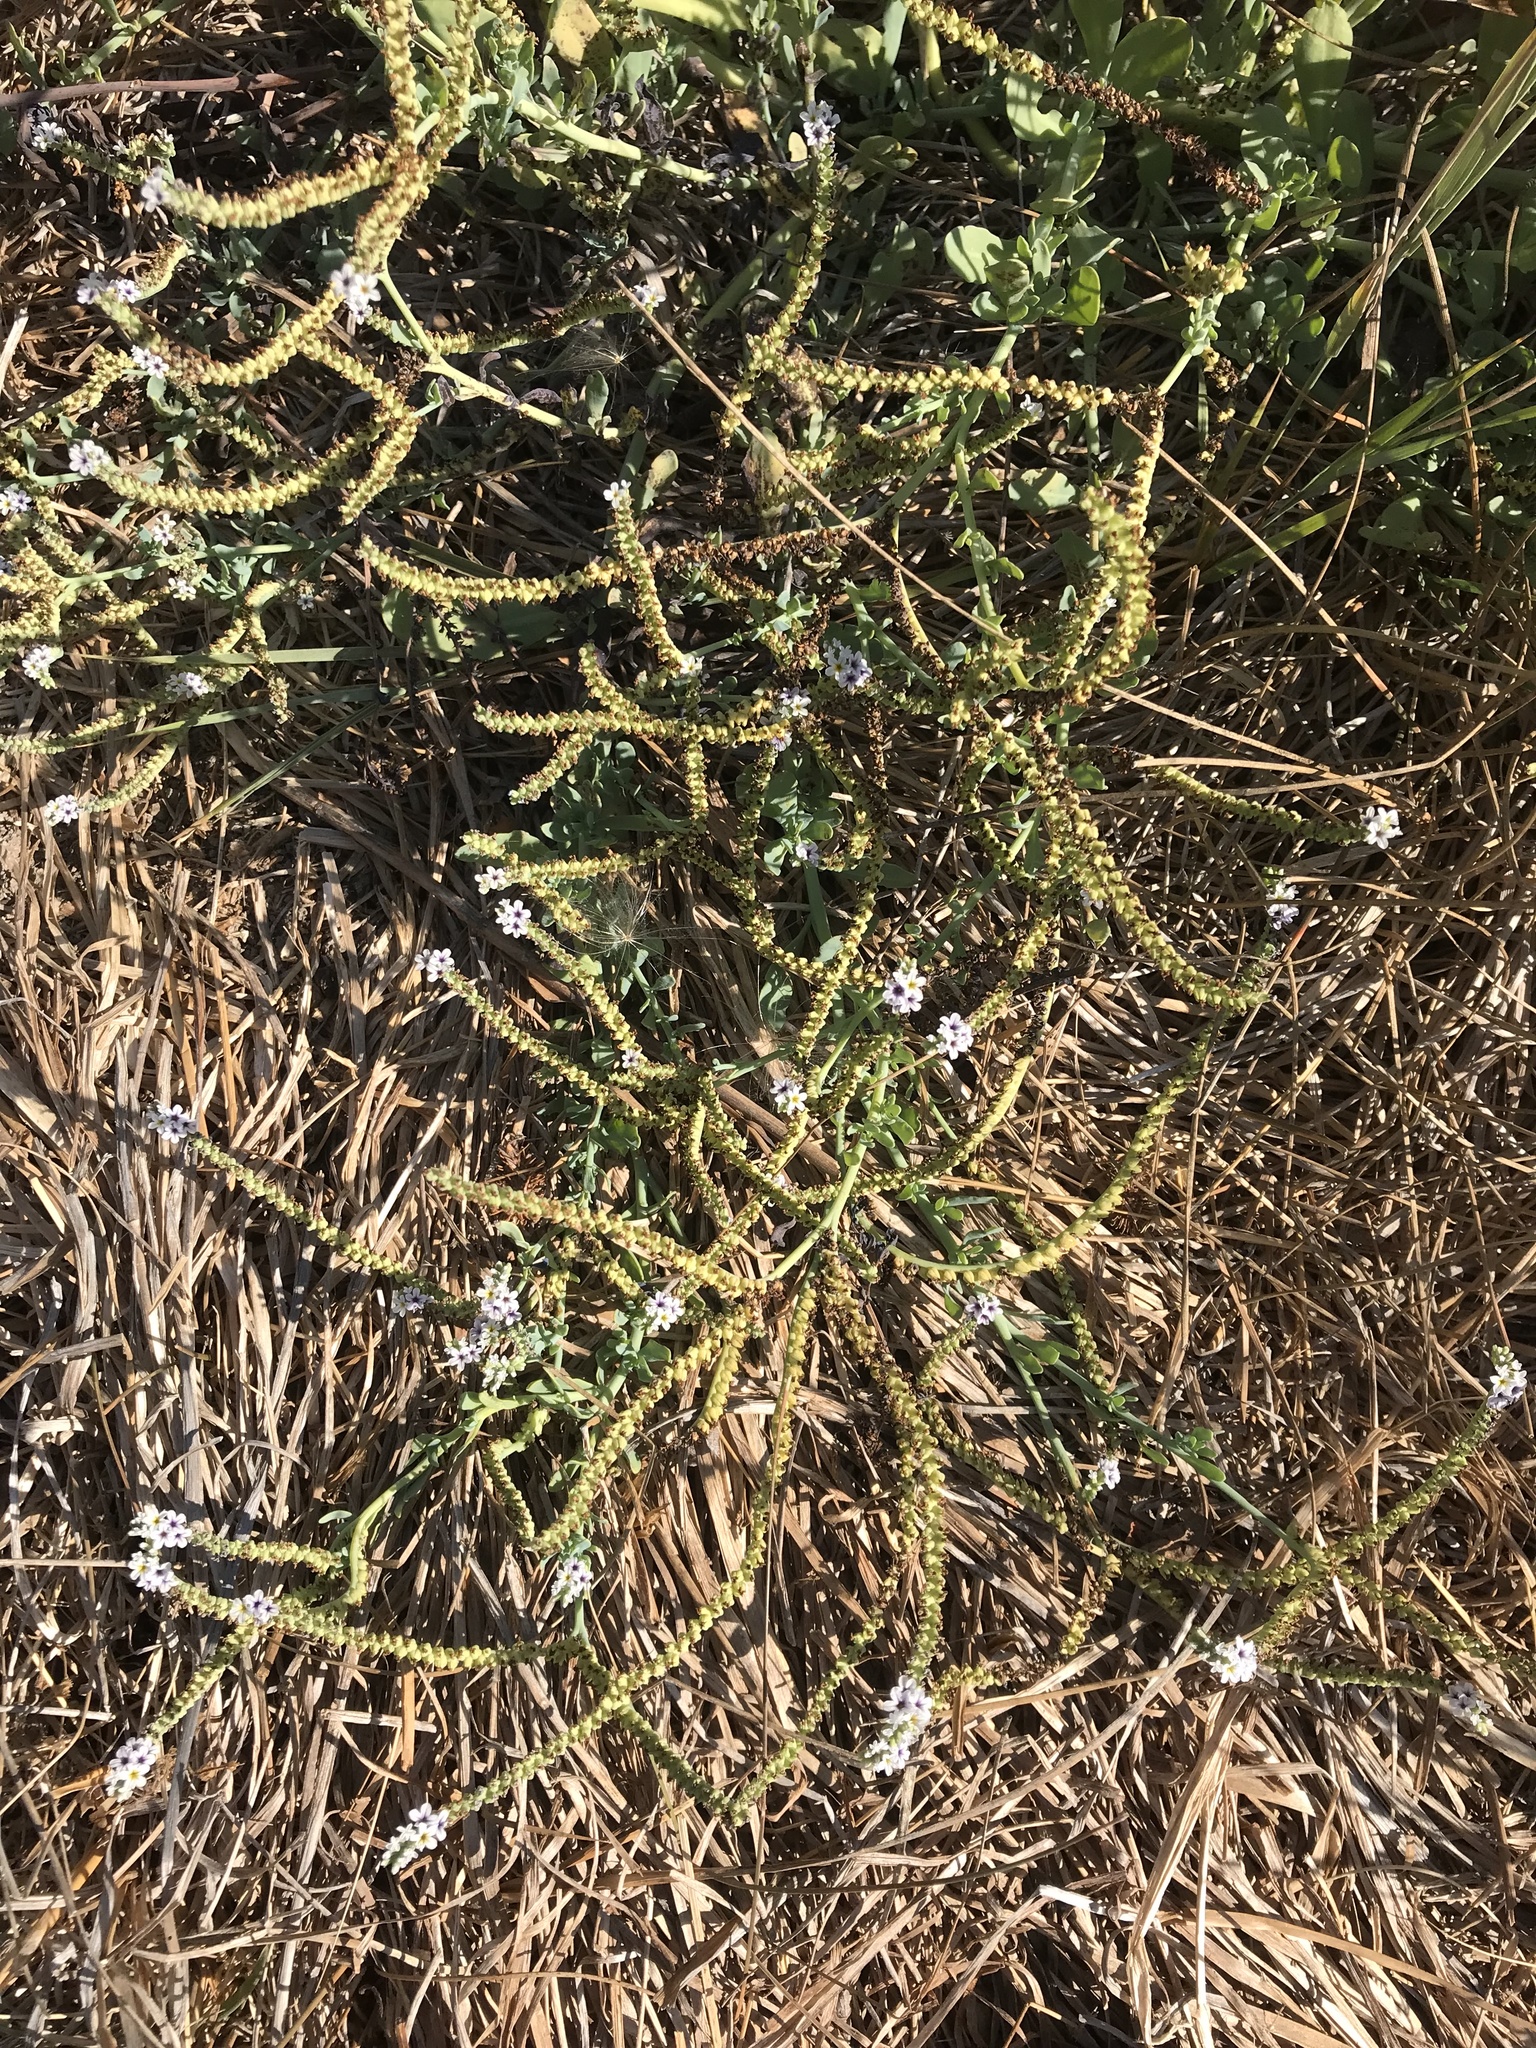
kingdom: Plantae
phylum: Tracheophyta
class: Magnoliopsida
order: Boraginales
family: Heliotropiaceae
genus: Heliotropium
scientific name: Heliotropium curassavicum
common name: Seaside heliotrope
